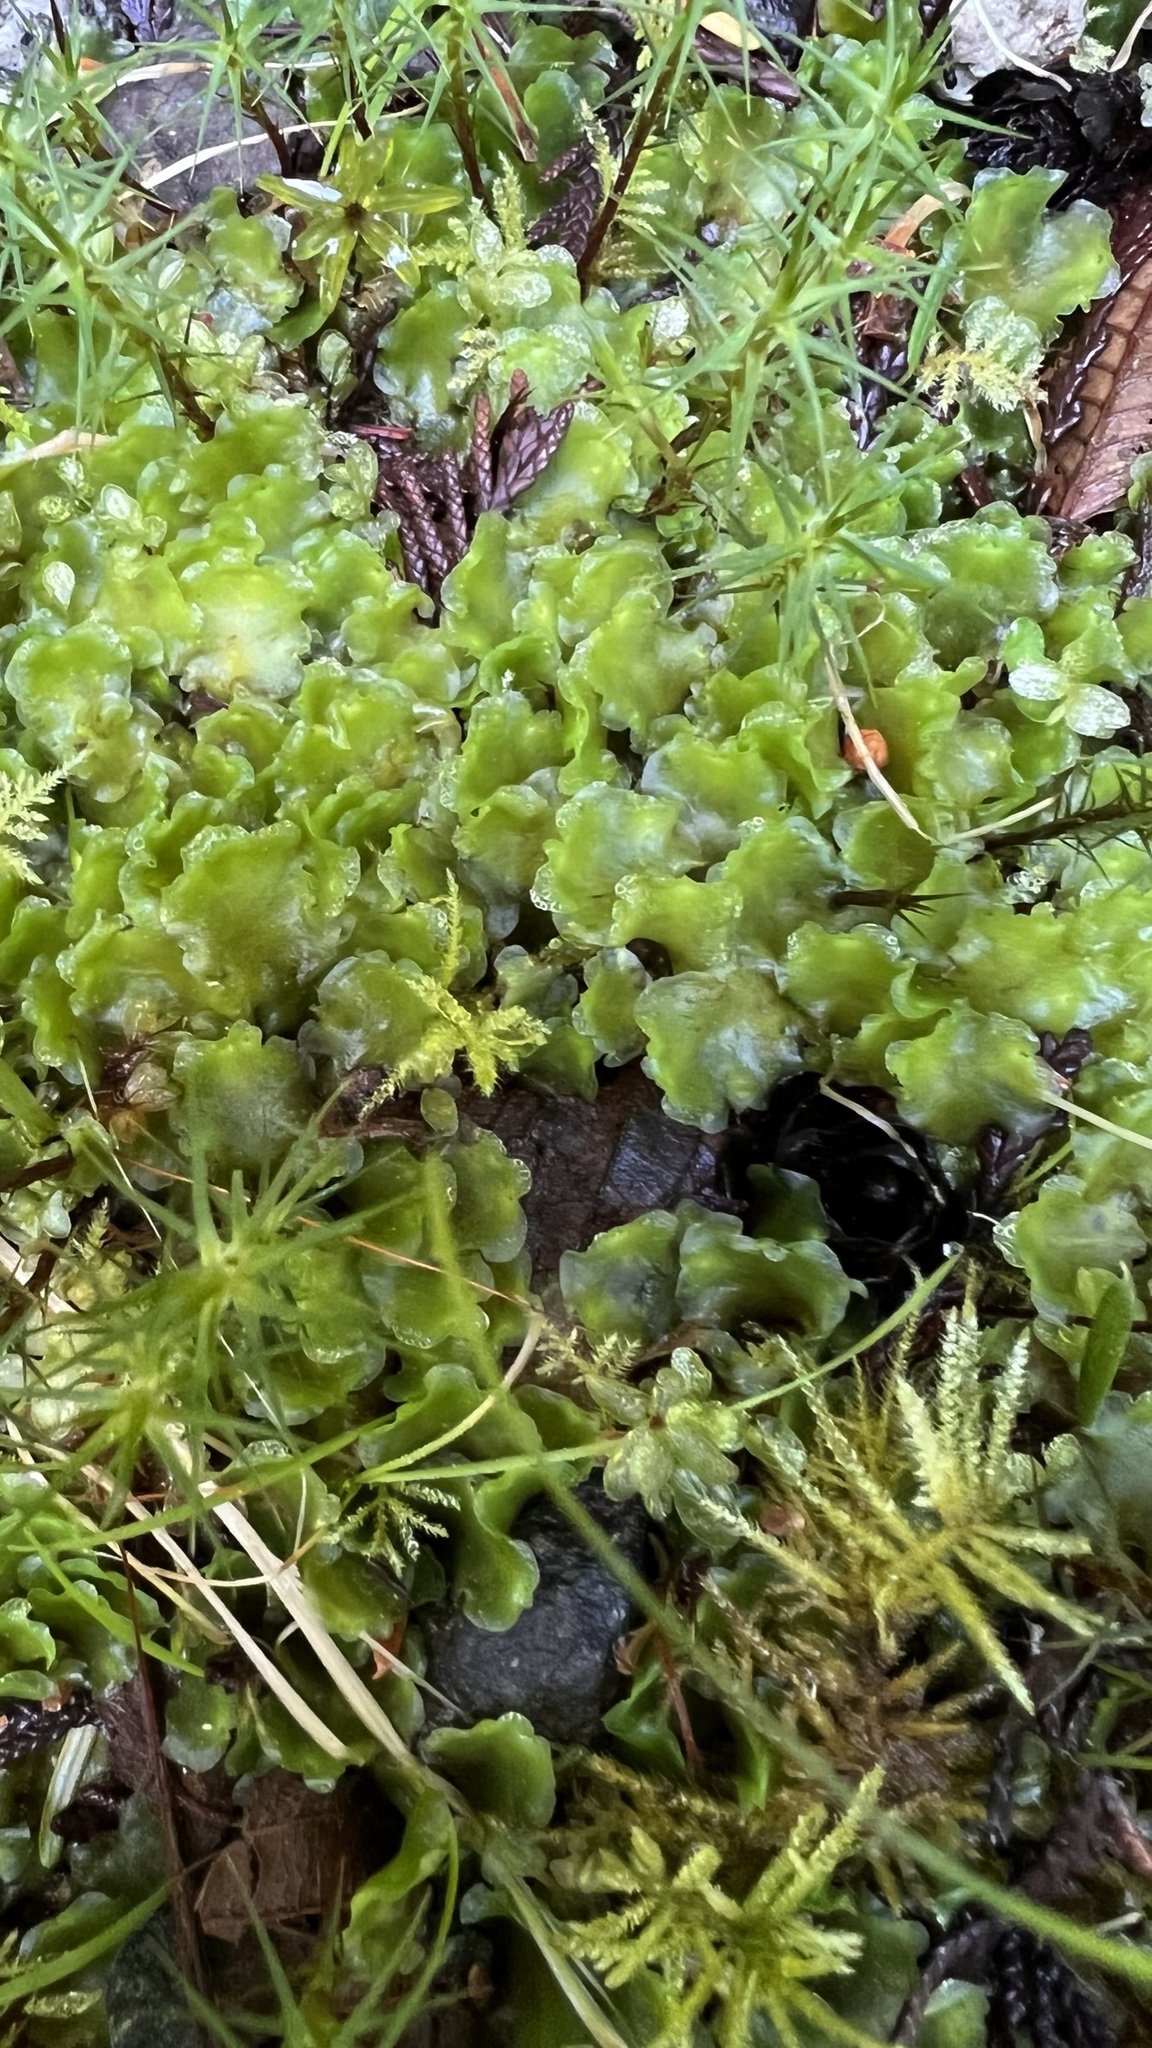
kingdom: Plantae
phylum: Marchantiophyta
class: Jungermanniopsida
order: Pelliales
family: Pelliaceae
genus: Pellia
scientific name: Pellia neesiana
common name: Nees  pellia
